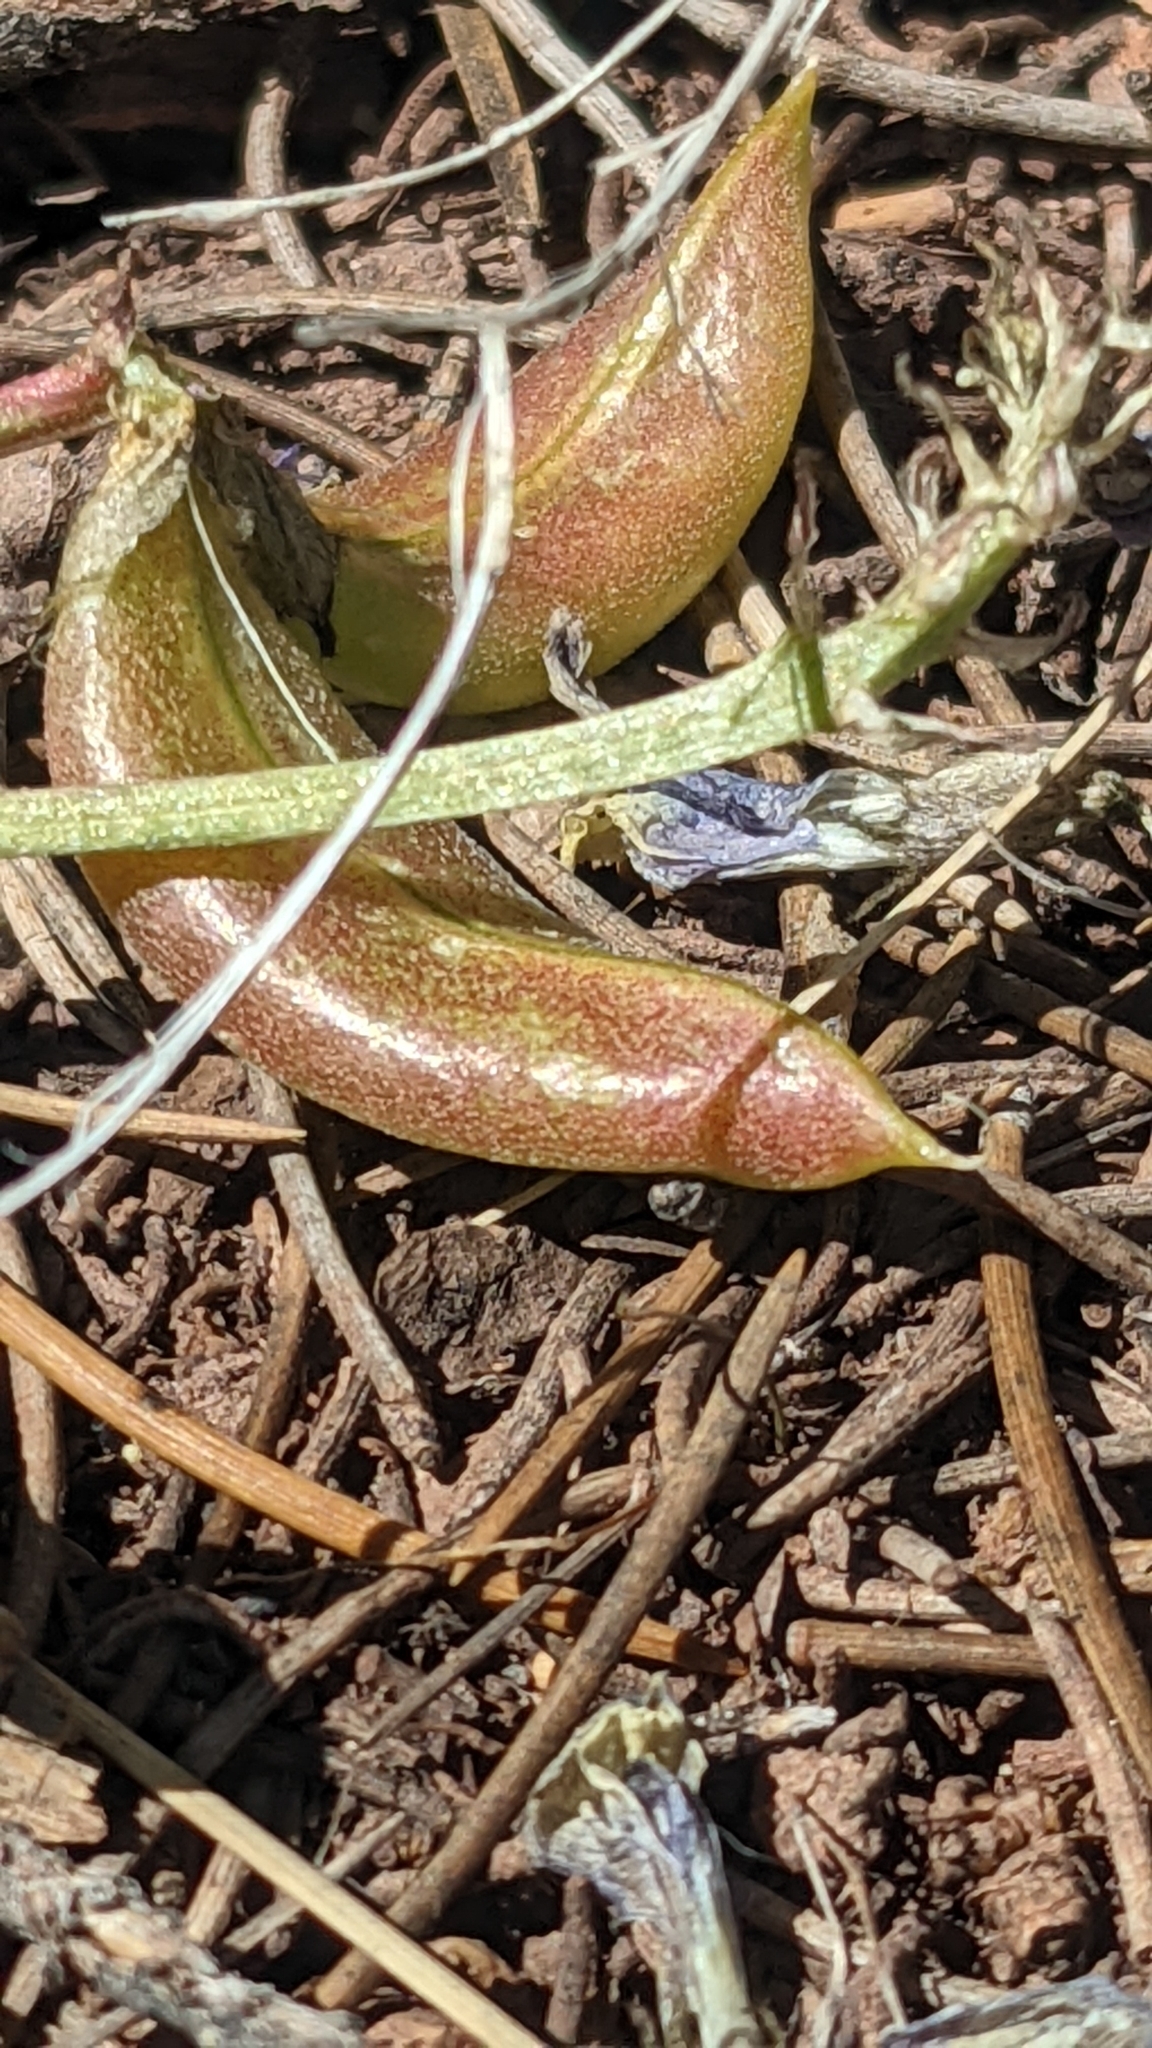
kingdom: Plantae
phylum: Tracheophyta
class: Magnoliopsida
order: Fabales
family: Fabaceae
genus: Astragalus
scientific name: Astragalus cibarius
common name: Browse milk-vetch
